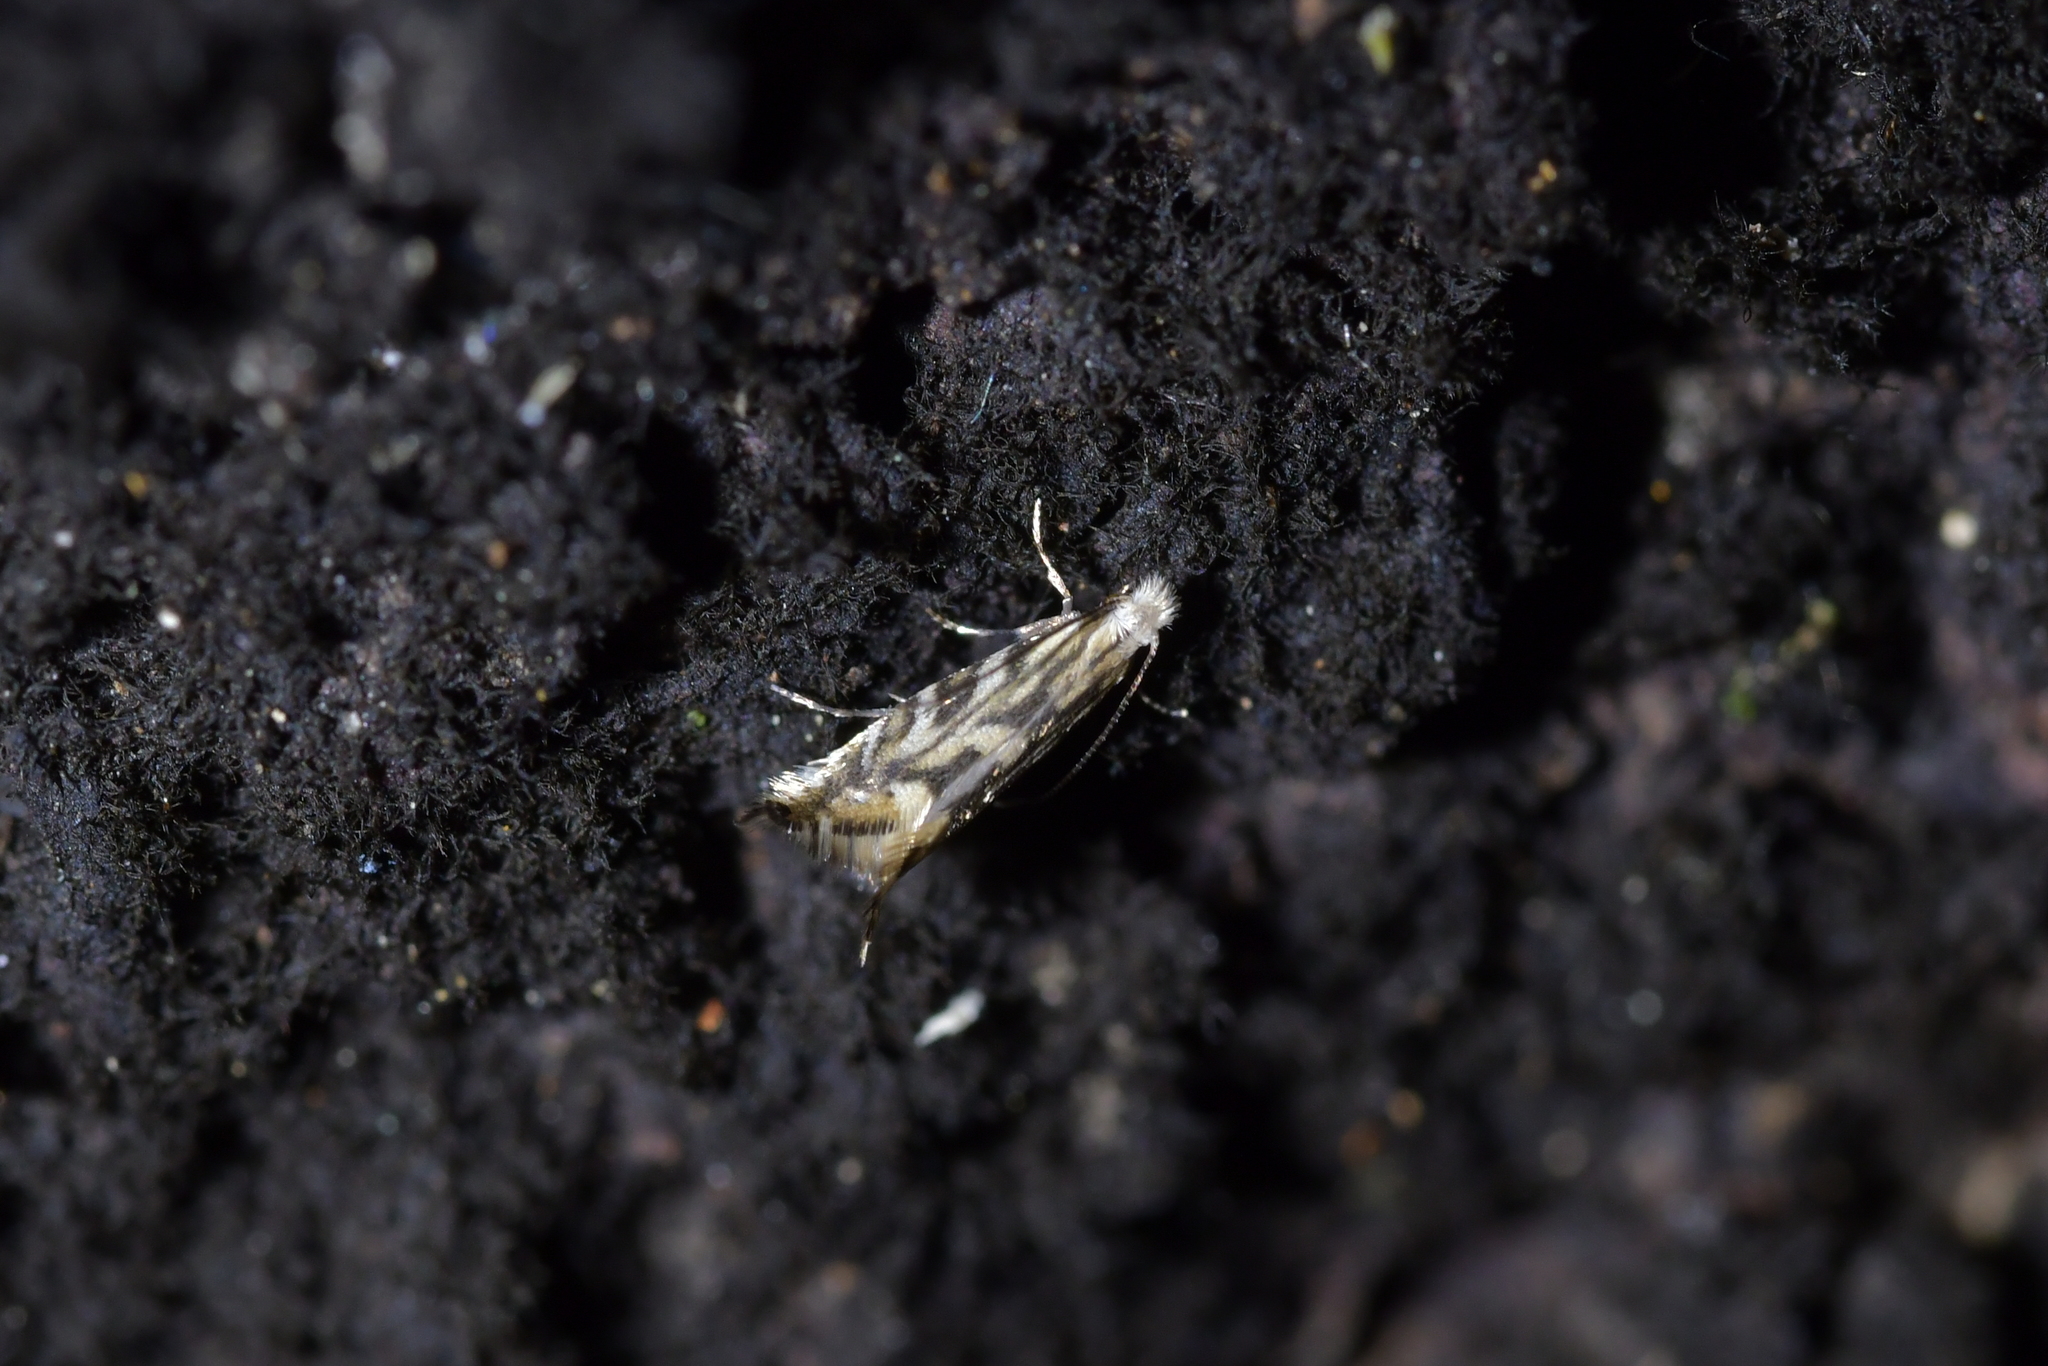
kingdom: Animalia
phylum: Arthropoda
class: Insecta
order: Lepidoptera
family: Tineidae
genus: Tinea
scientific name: Tinea accusatrix
